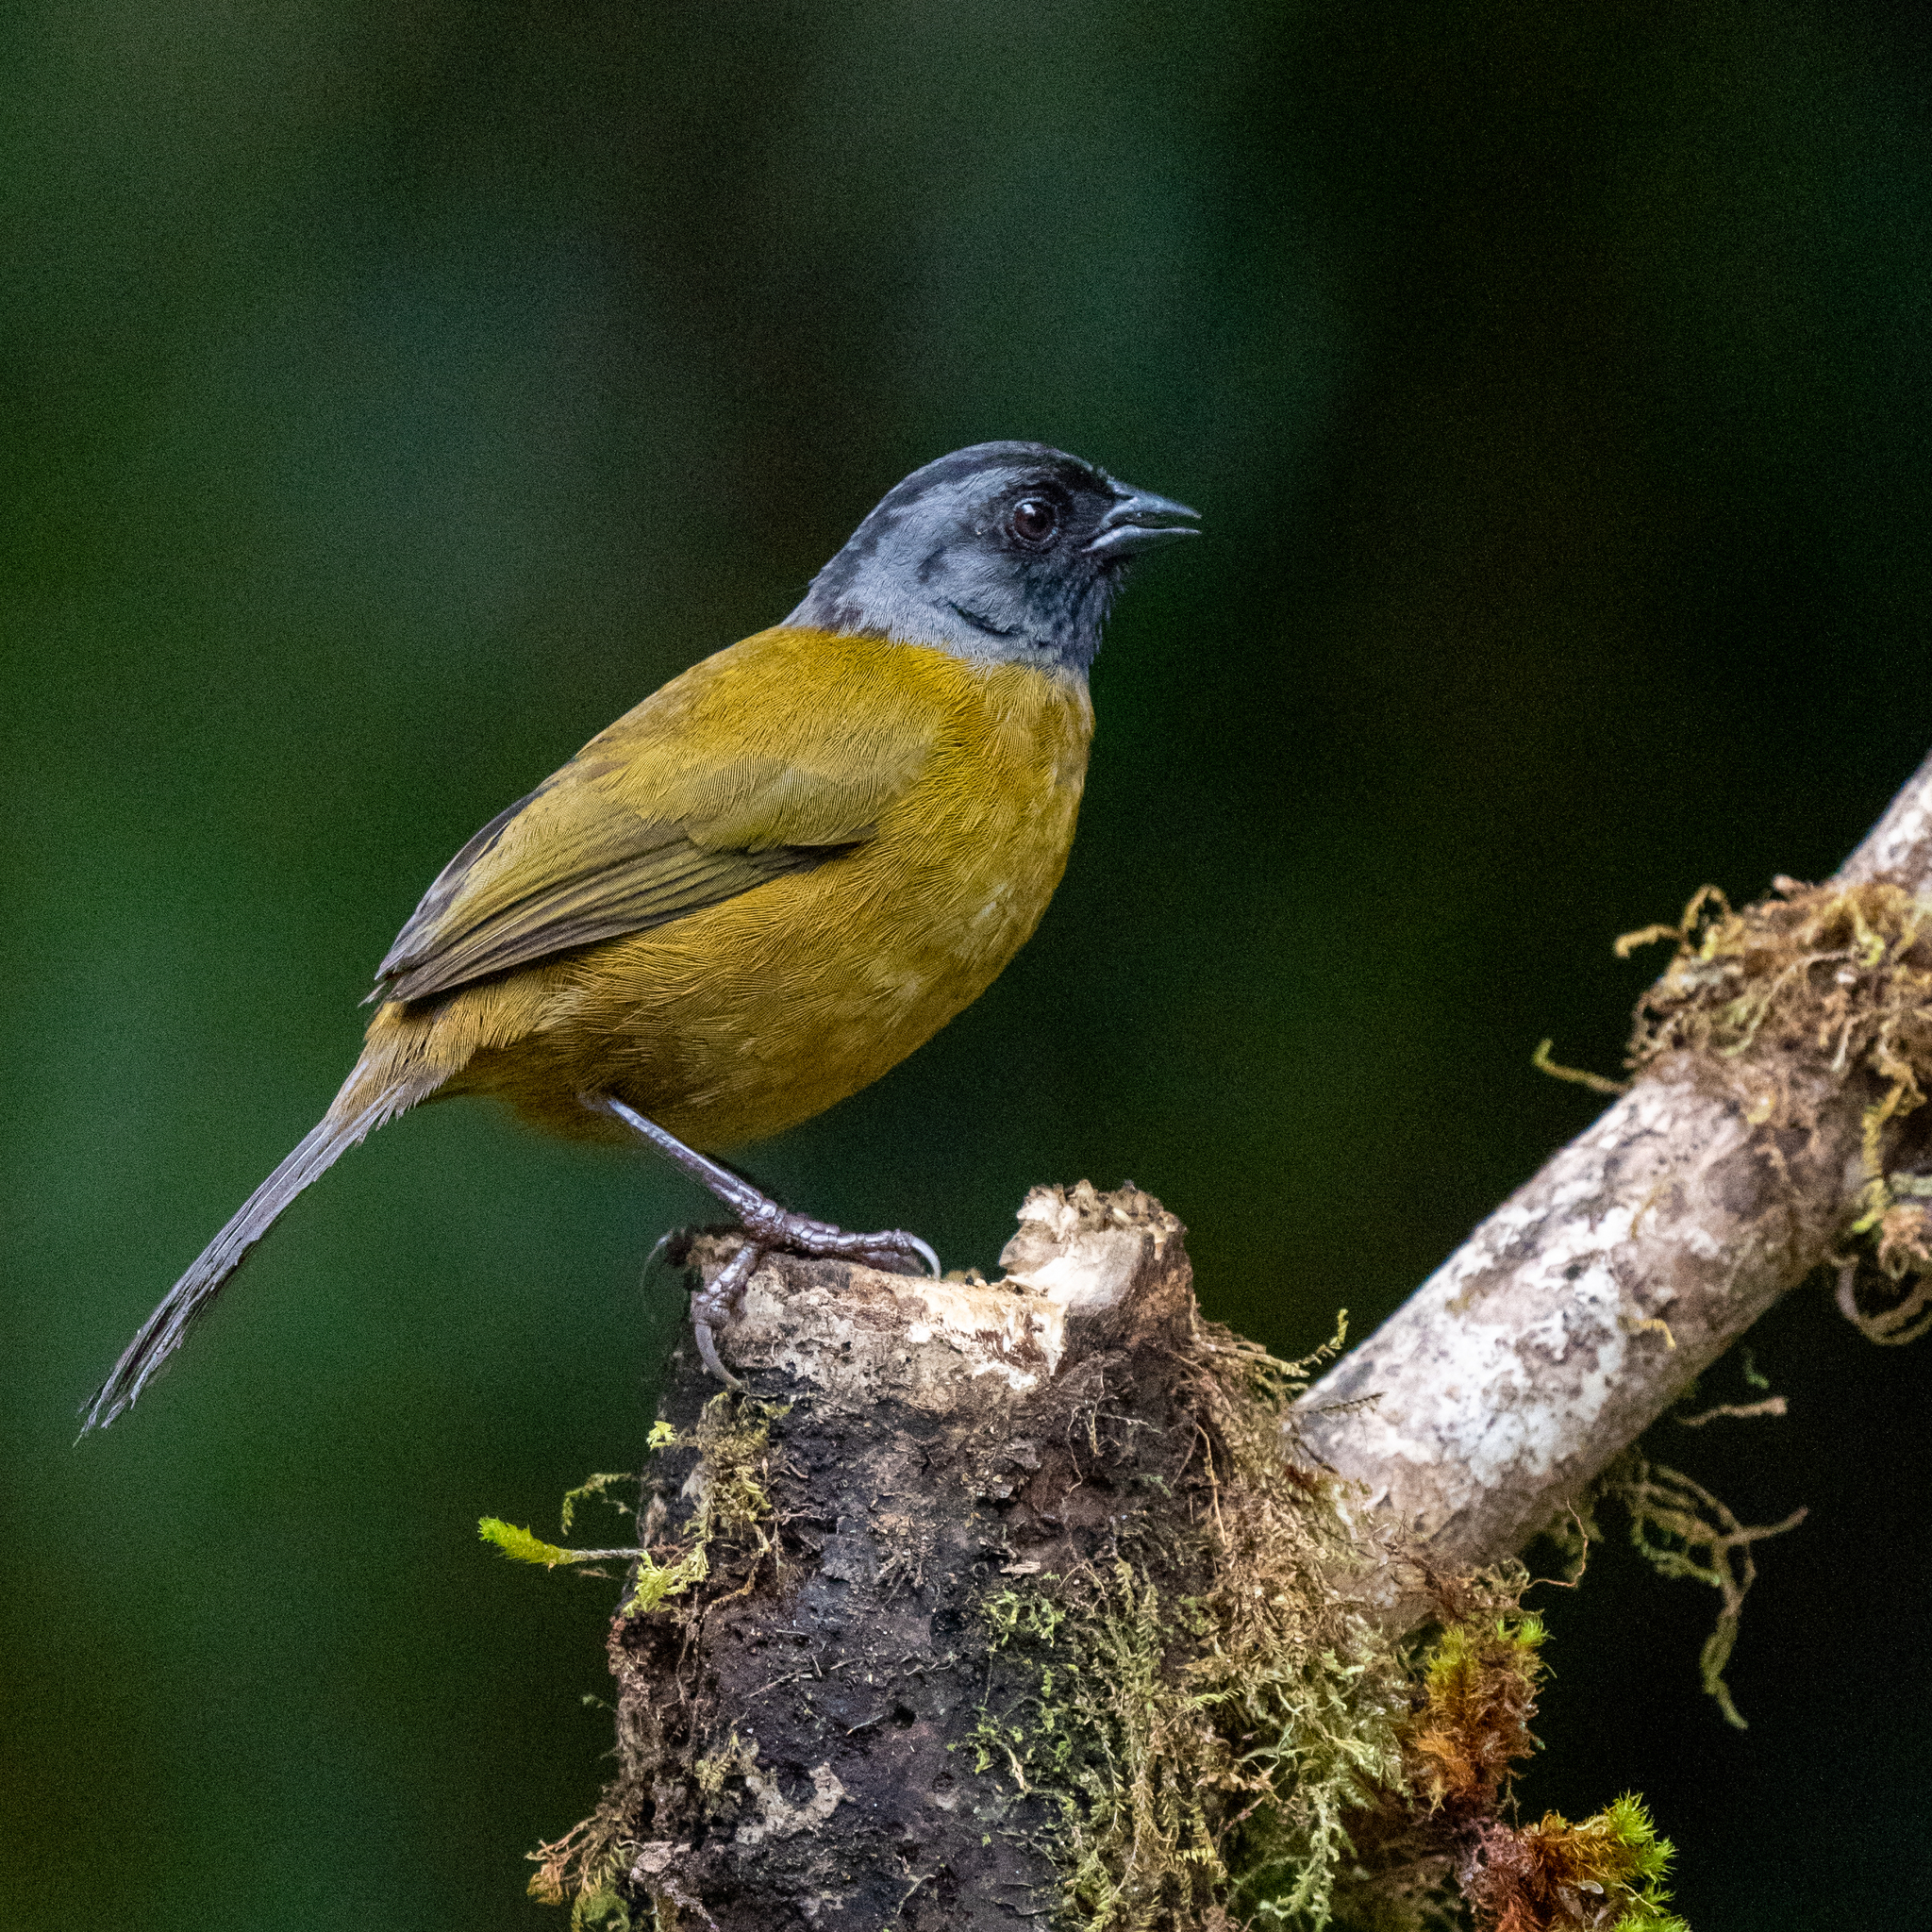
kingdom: Animalia
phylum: Chordata
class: Aves
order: Passeriformes
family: Passerellidae
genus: Pezopetes
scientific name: Pezopetes capitalis
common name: Large-footed finch
